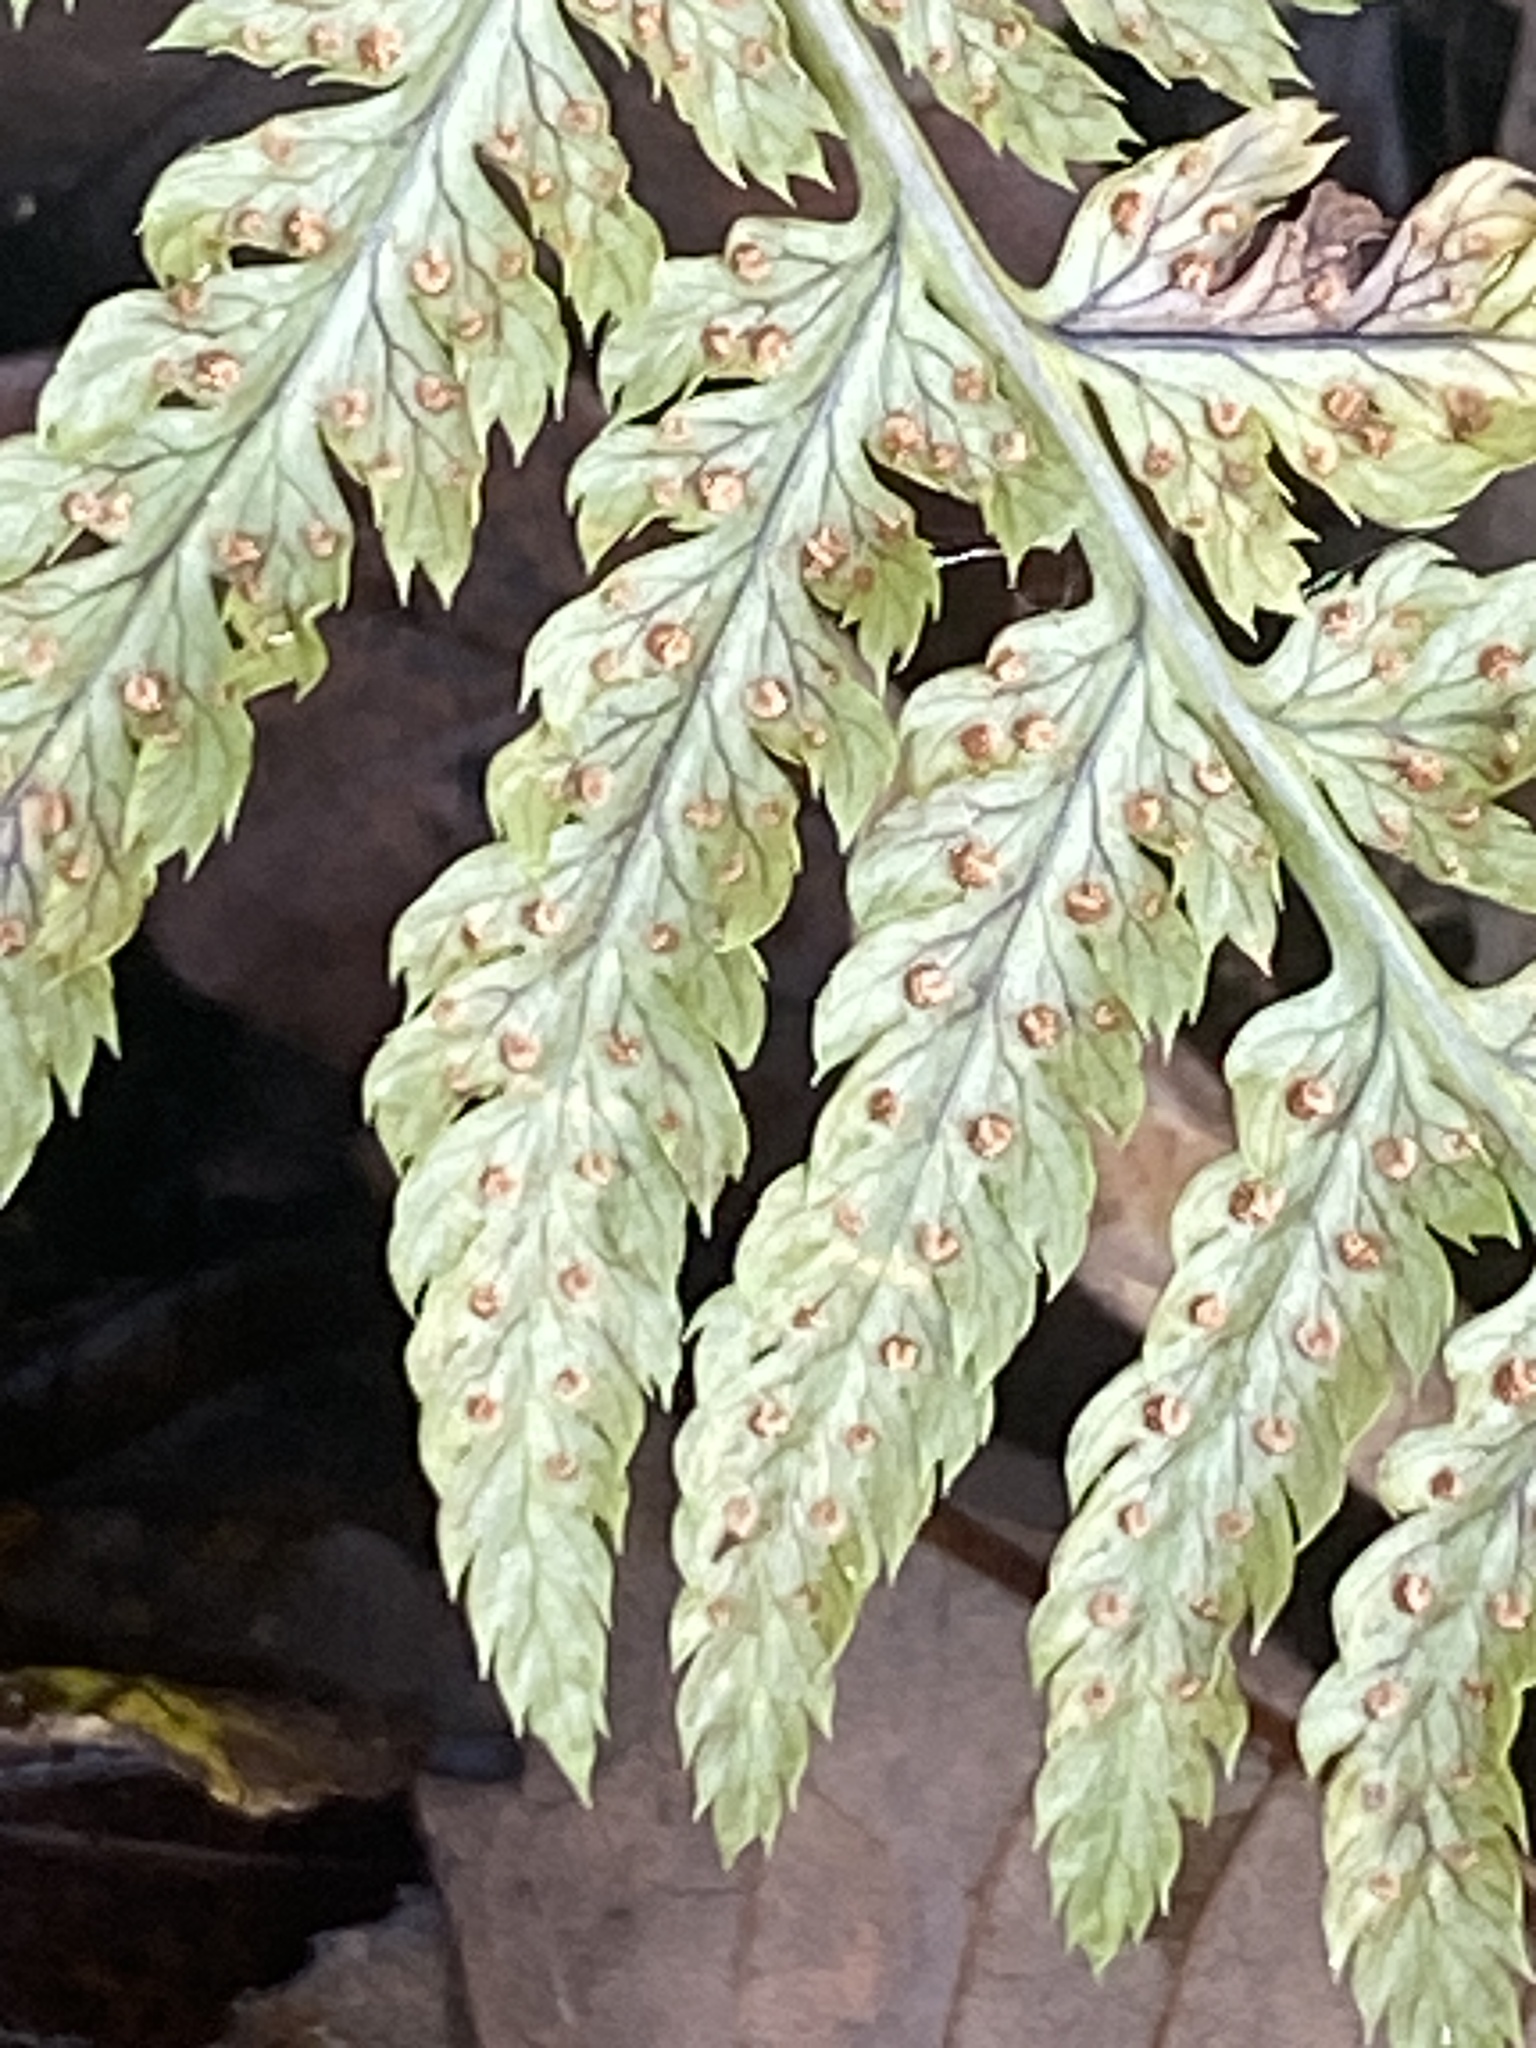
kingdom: Plantae
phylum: Tracheophyta
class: Polypodiopsida
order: Polypodiales
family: Dryopteridaceae
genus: Dryopteris
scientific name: Dryopteris intermedia
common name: Evergreen wood fern
